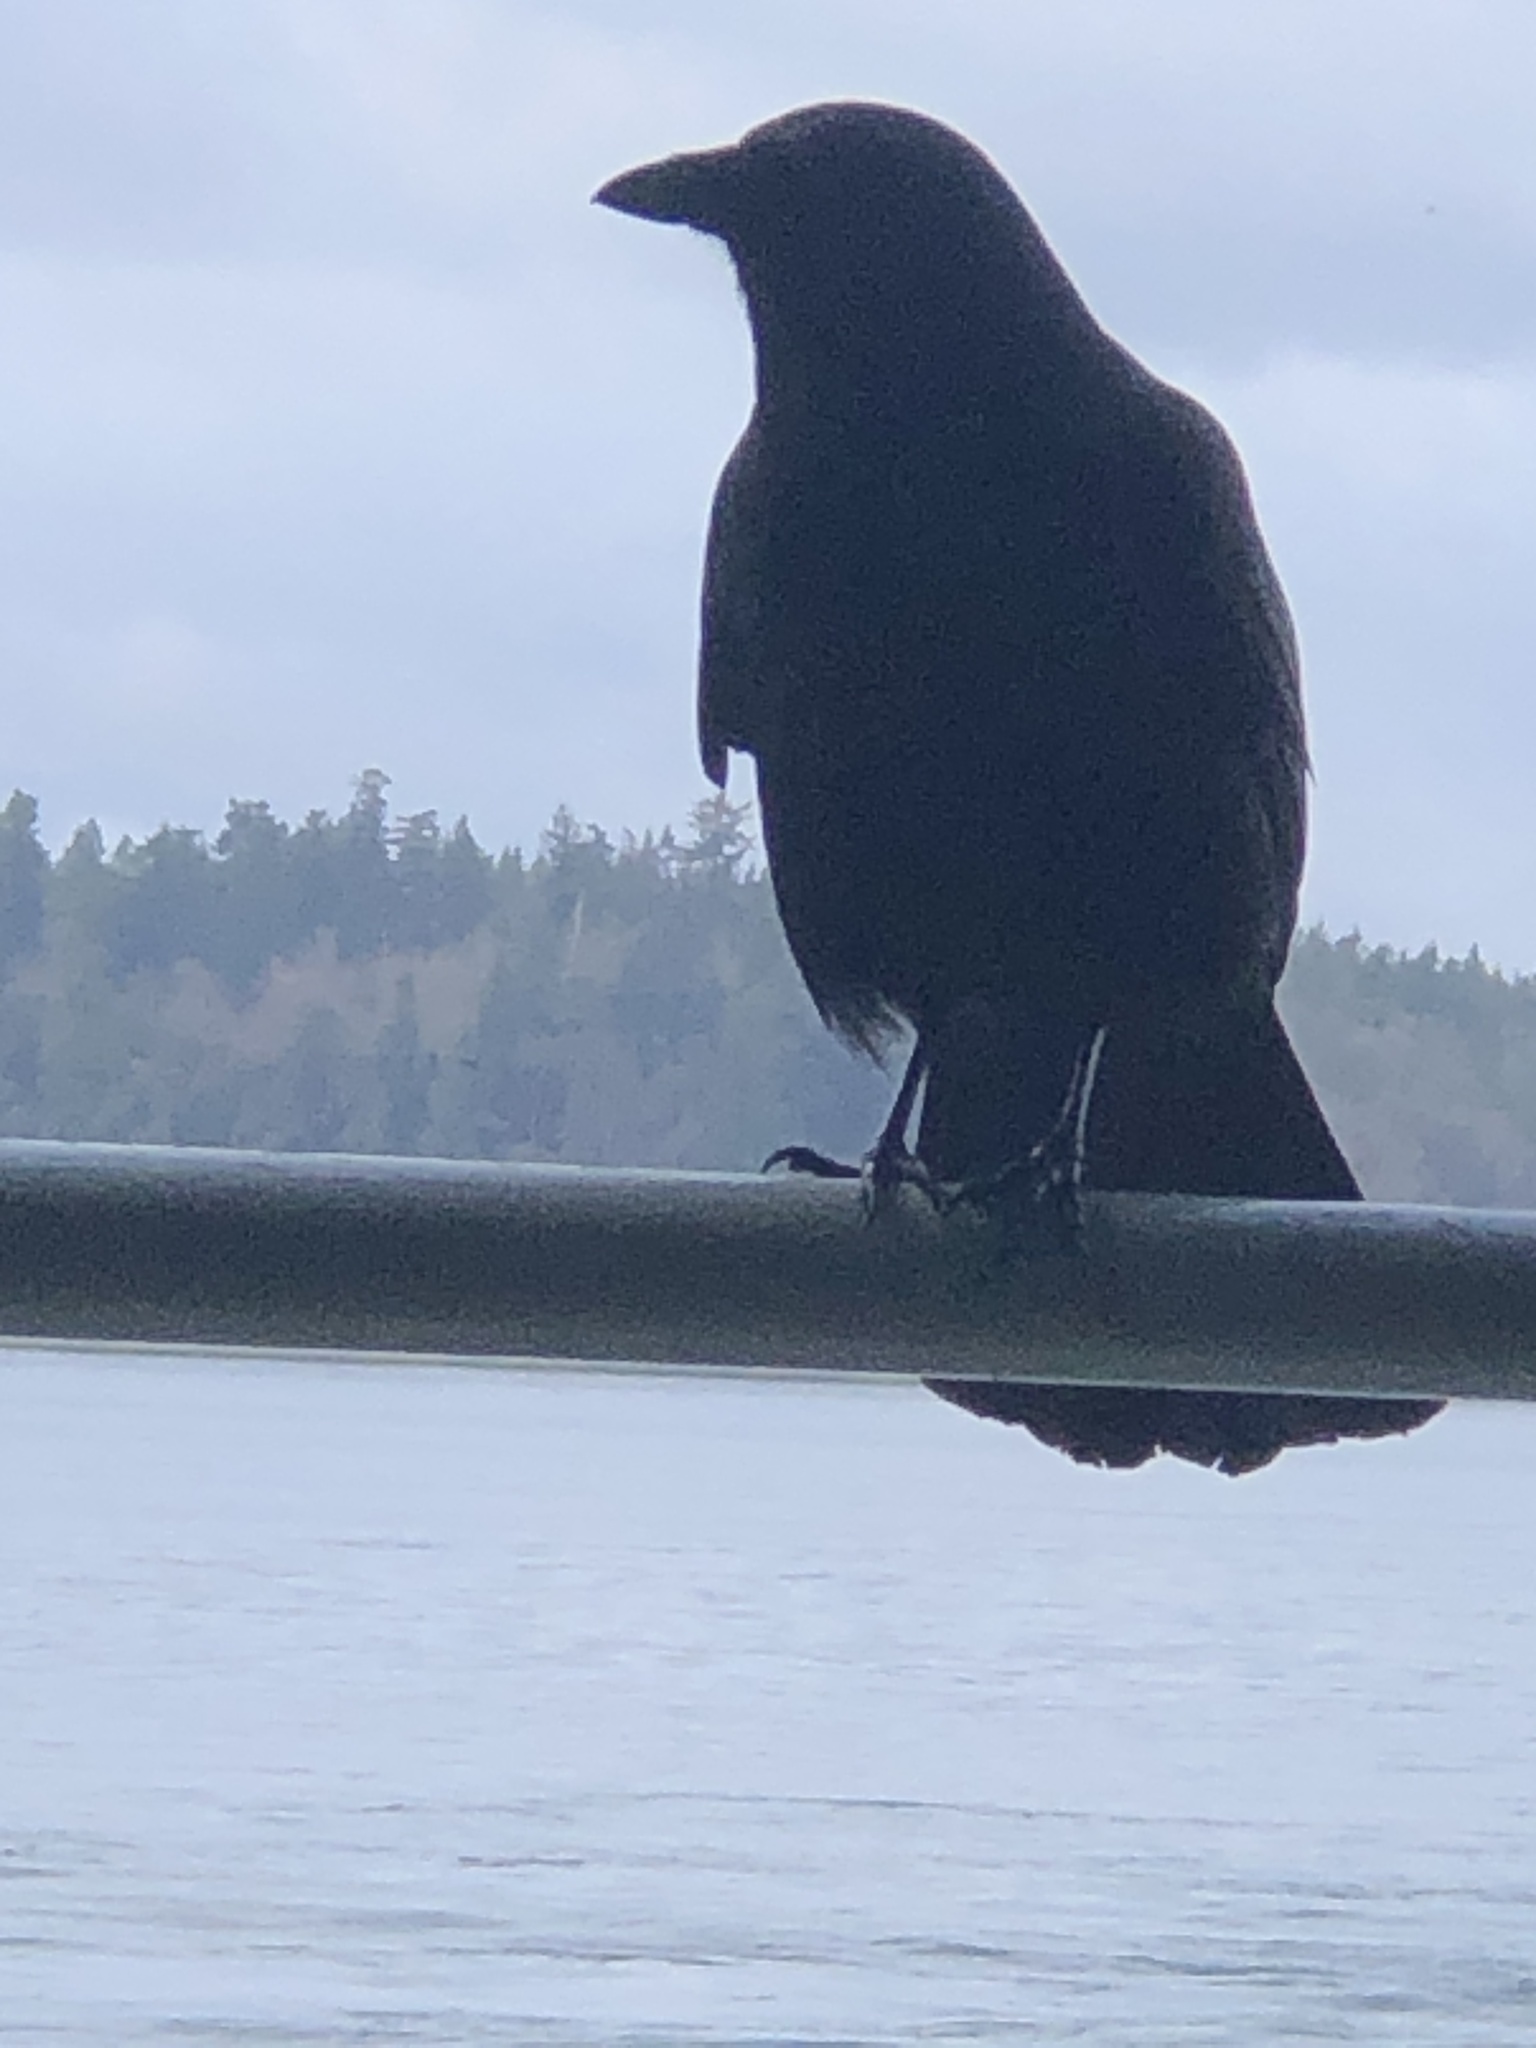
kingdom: Animalia
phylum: Chordata
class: Aves
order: Passeriformes
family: Corvidae
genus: Corvus
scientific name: Corvus brachyrhynchos
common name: American crow
